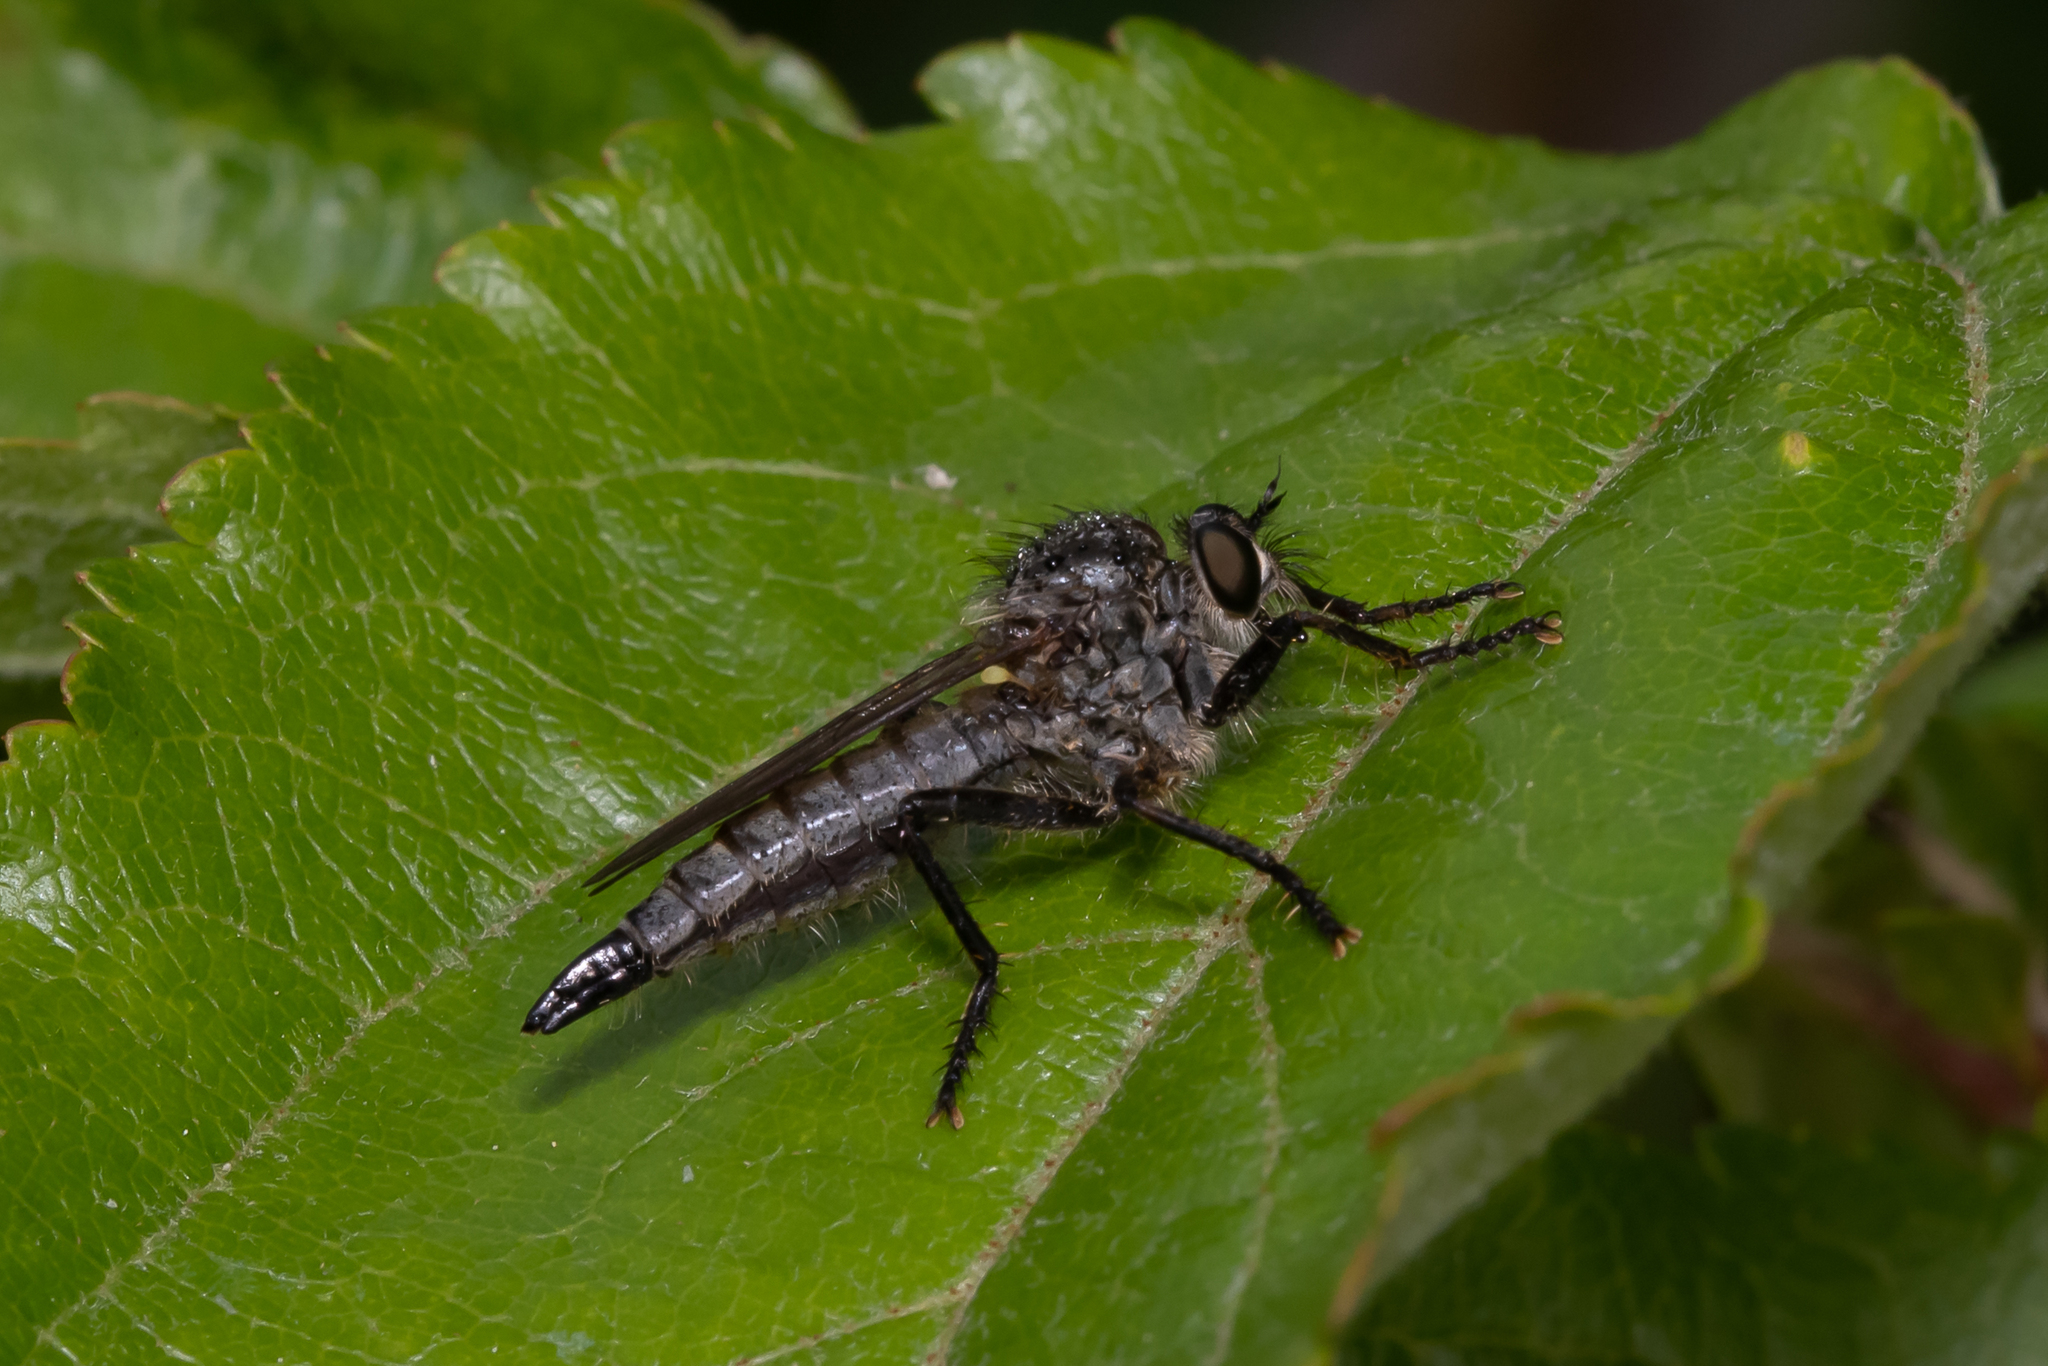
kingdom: Animalia
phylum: Arthropoda
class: Insecta
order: Diptera
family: Asilidae
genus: Didysmachus
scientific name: Didysmachus picipes
